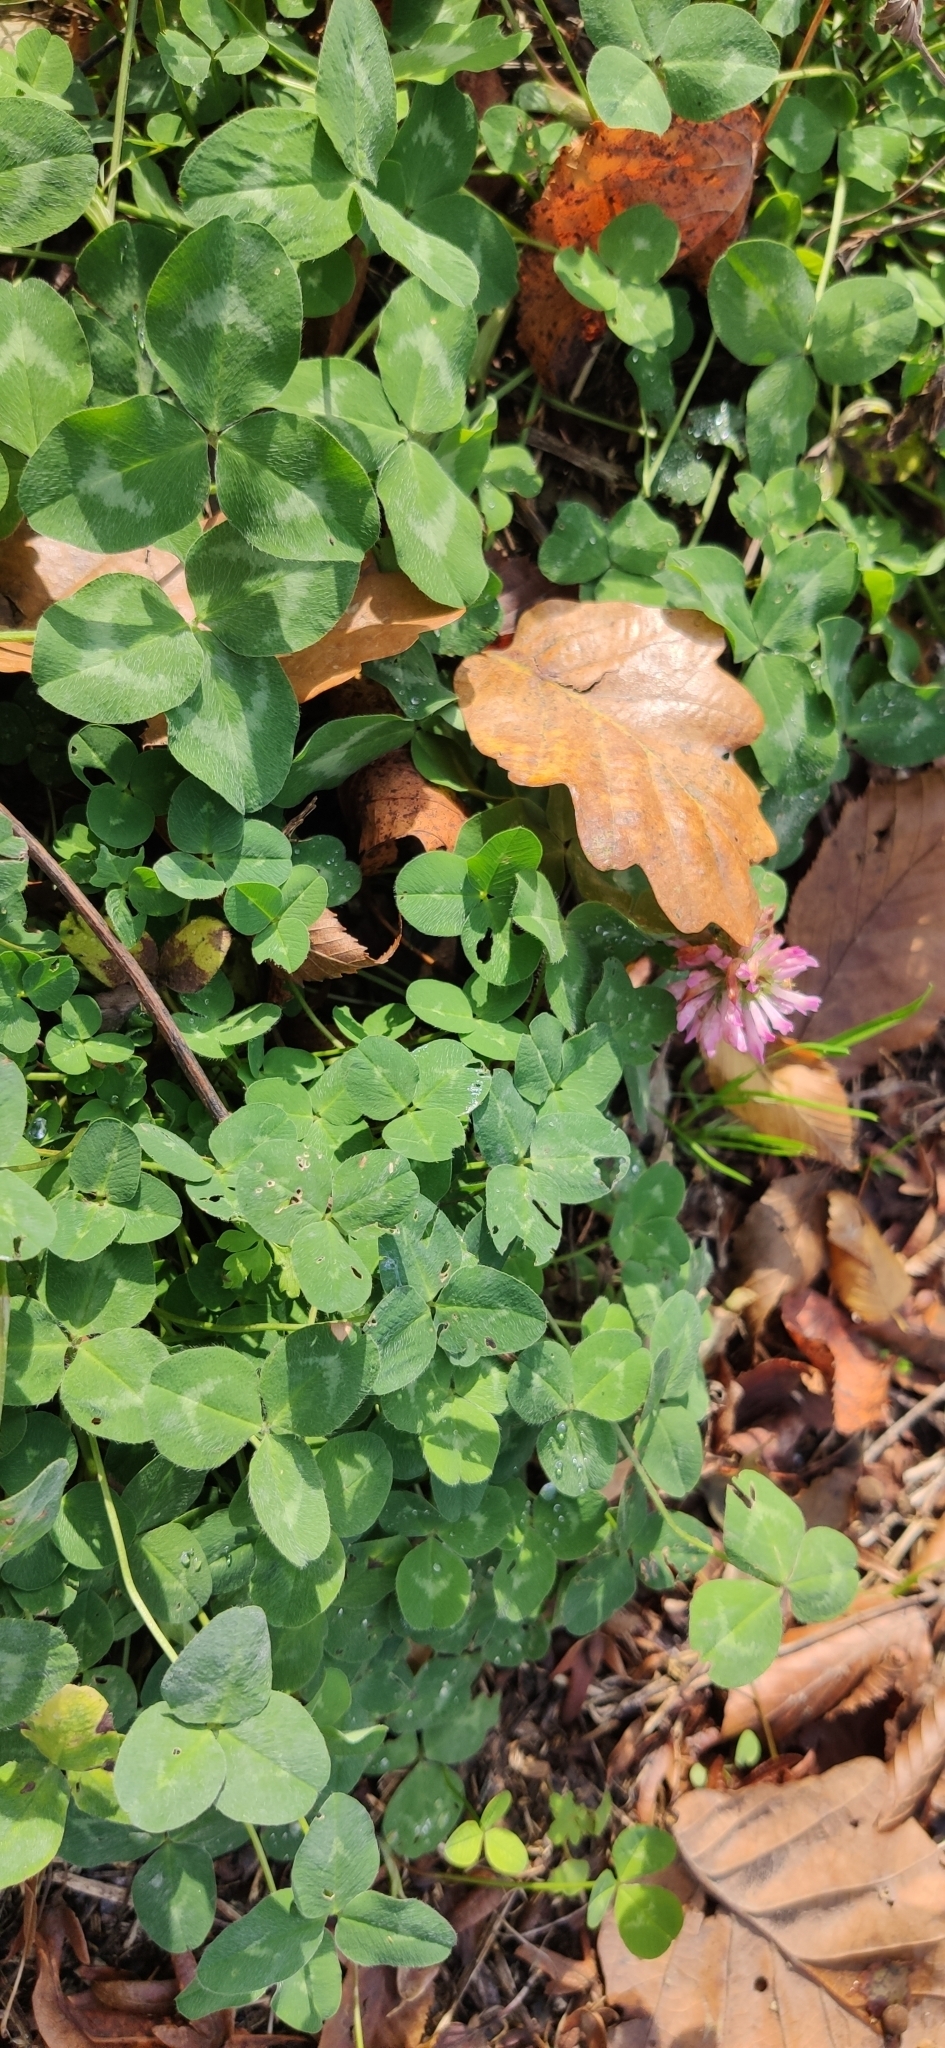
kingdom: Plantae
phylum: Tracheophyta
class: Magnoliopsida
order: Fabales
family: Fabaceae
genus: Trifolium
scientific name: Trifolium pratense
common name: Red clover
